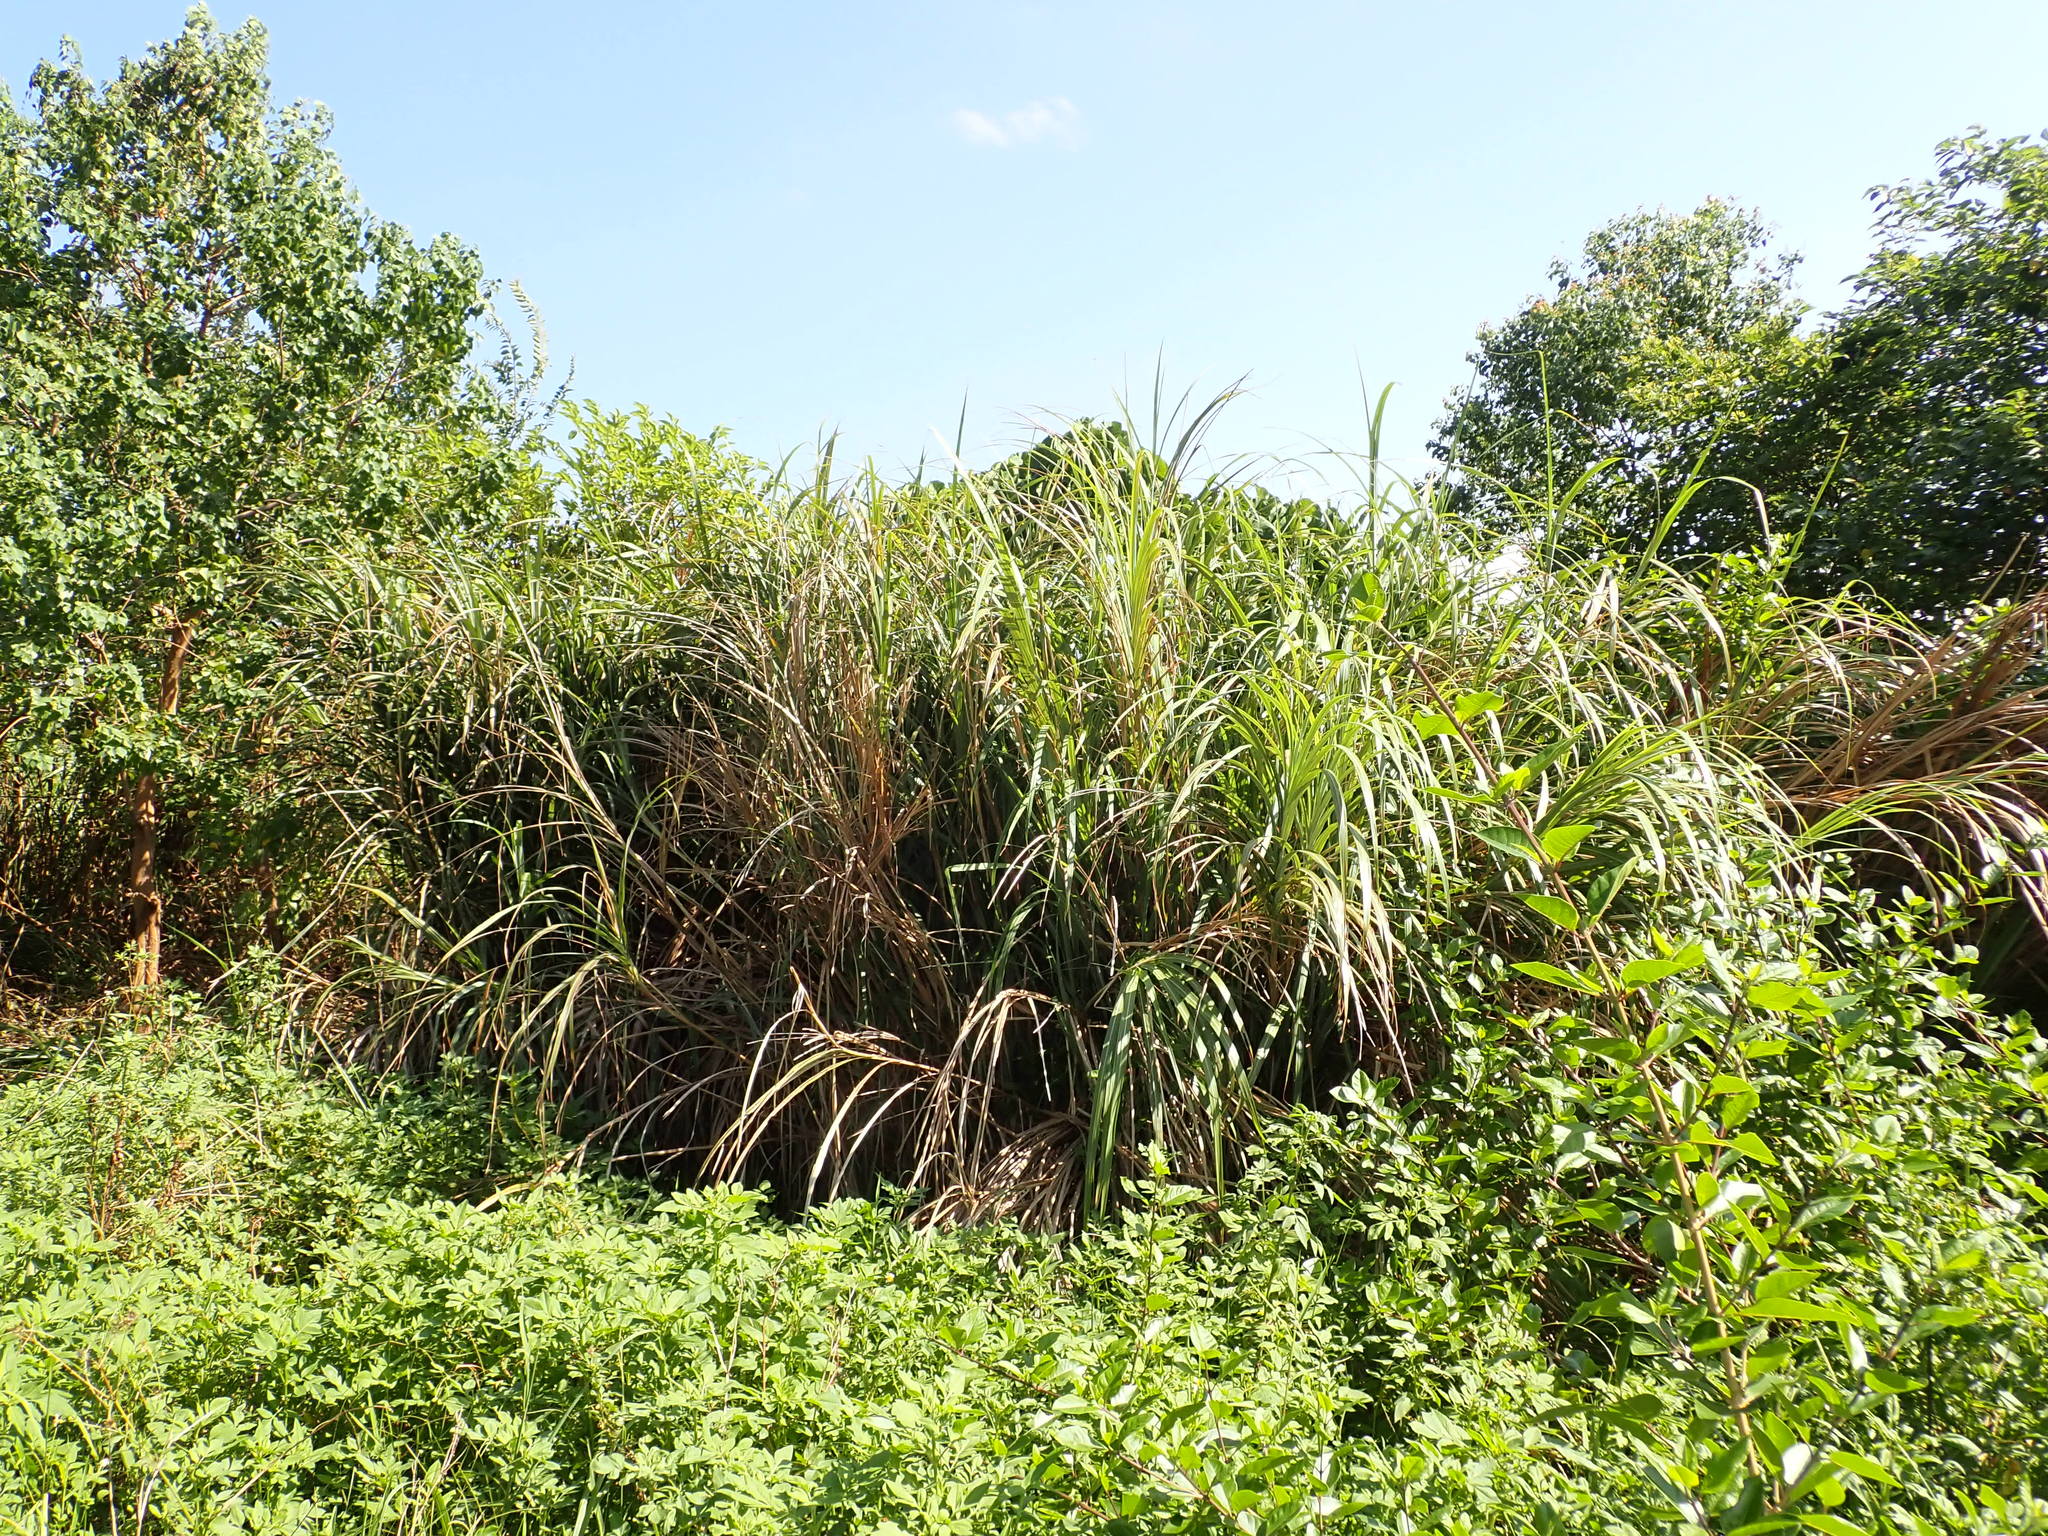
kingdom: Plantae
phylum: Tracheophyta
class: Liliopsida
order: Poales
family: Poaceae
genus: Miscanthus
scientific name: Miscanthus sinensis
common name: Chinese silvergrass
